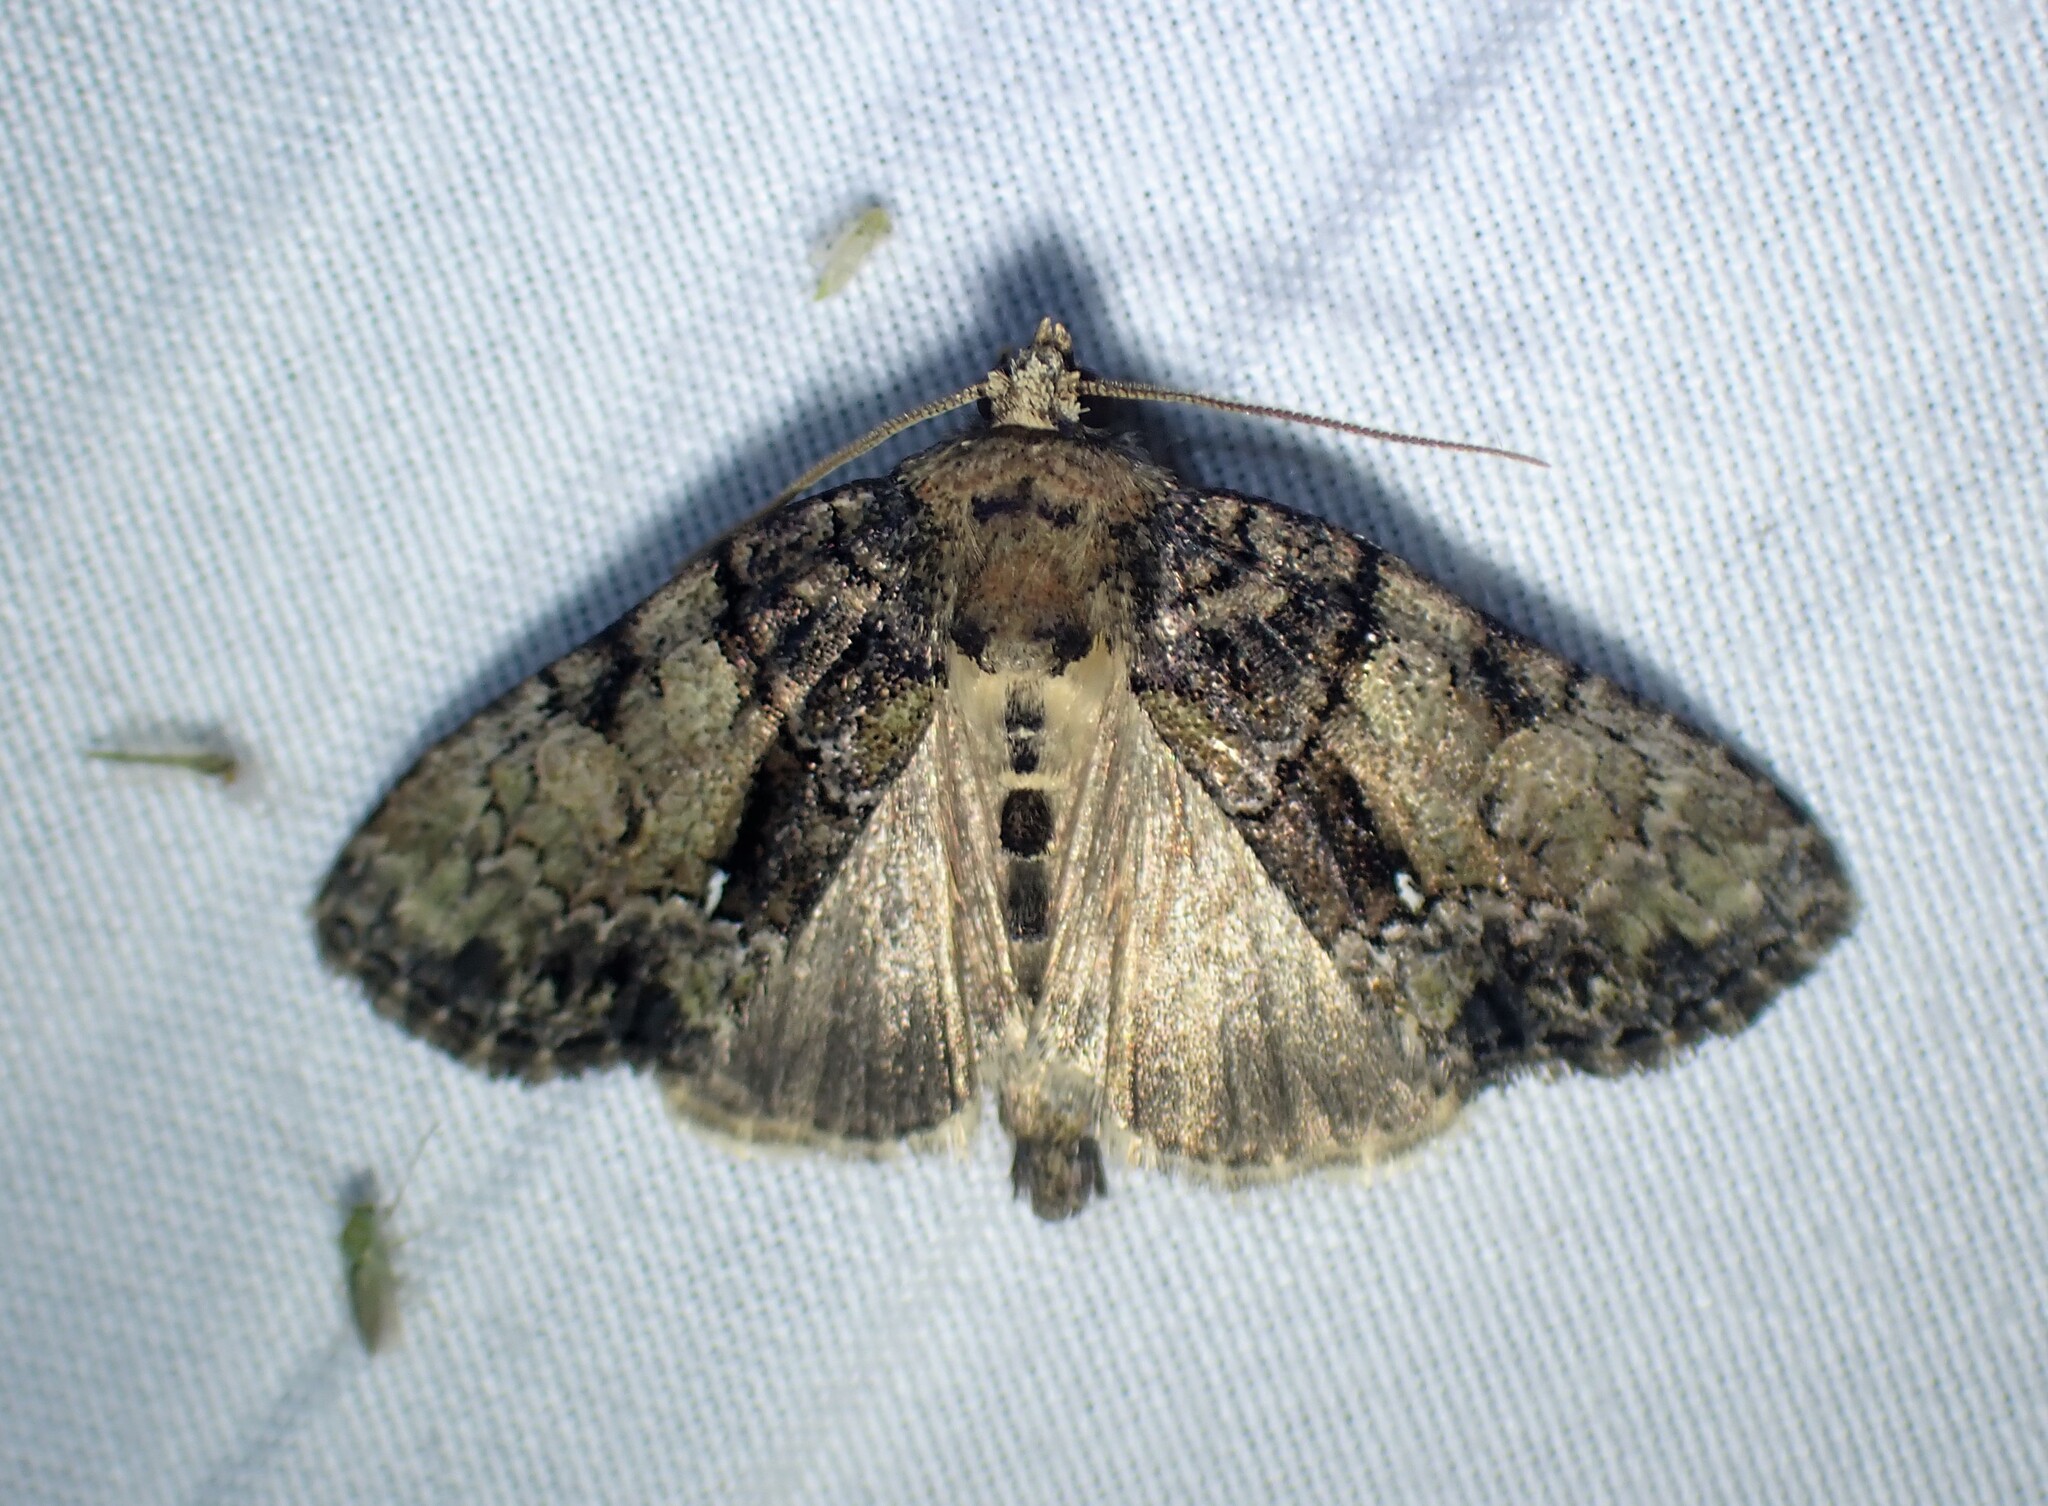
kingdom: Animalia
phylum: Arthropoda
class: Insecta
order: Lepidoptera
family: Noctuidae
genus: Chytonix
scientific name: Chytonix palliatricula
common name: Cloaked marvel
